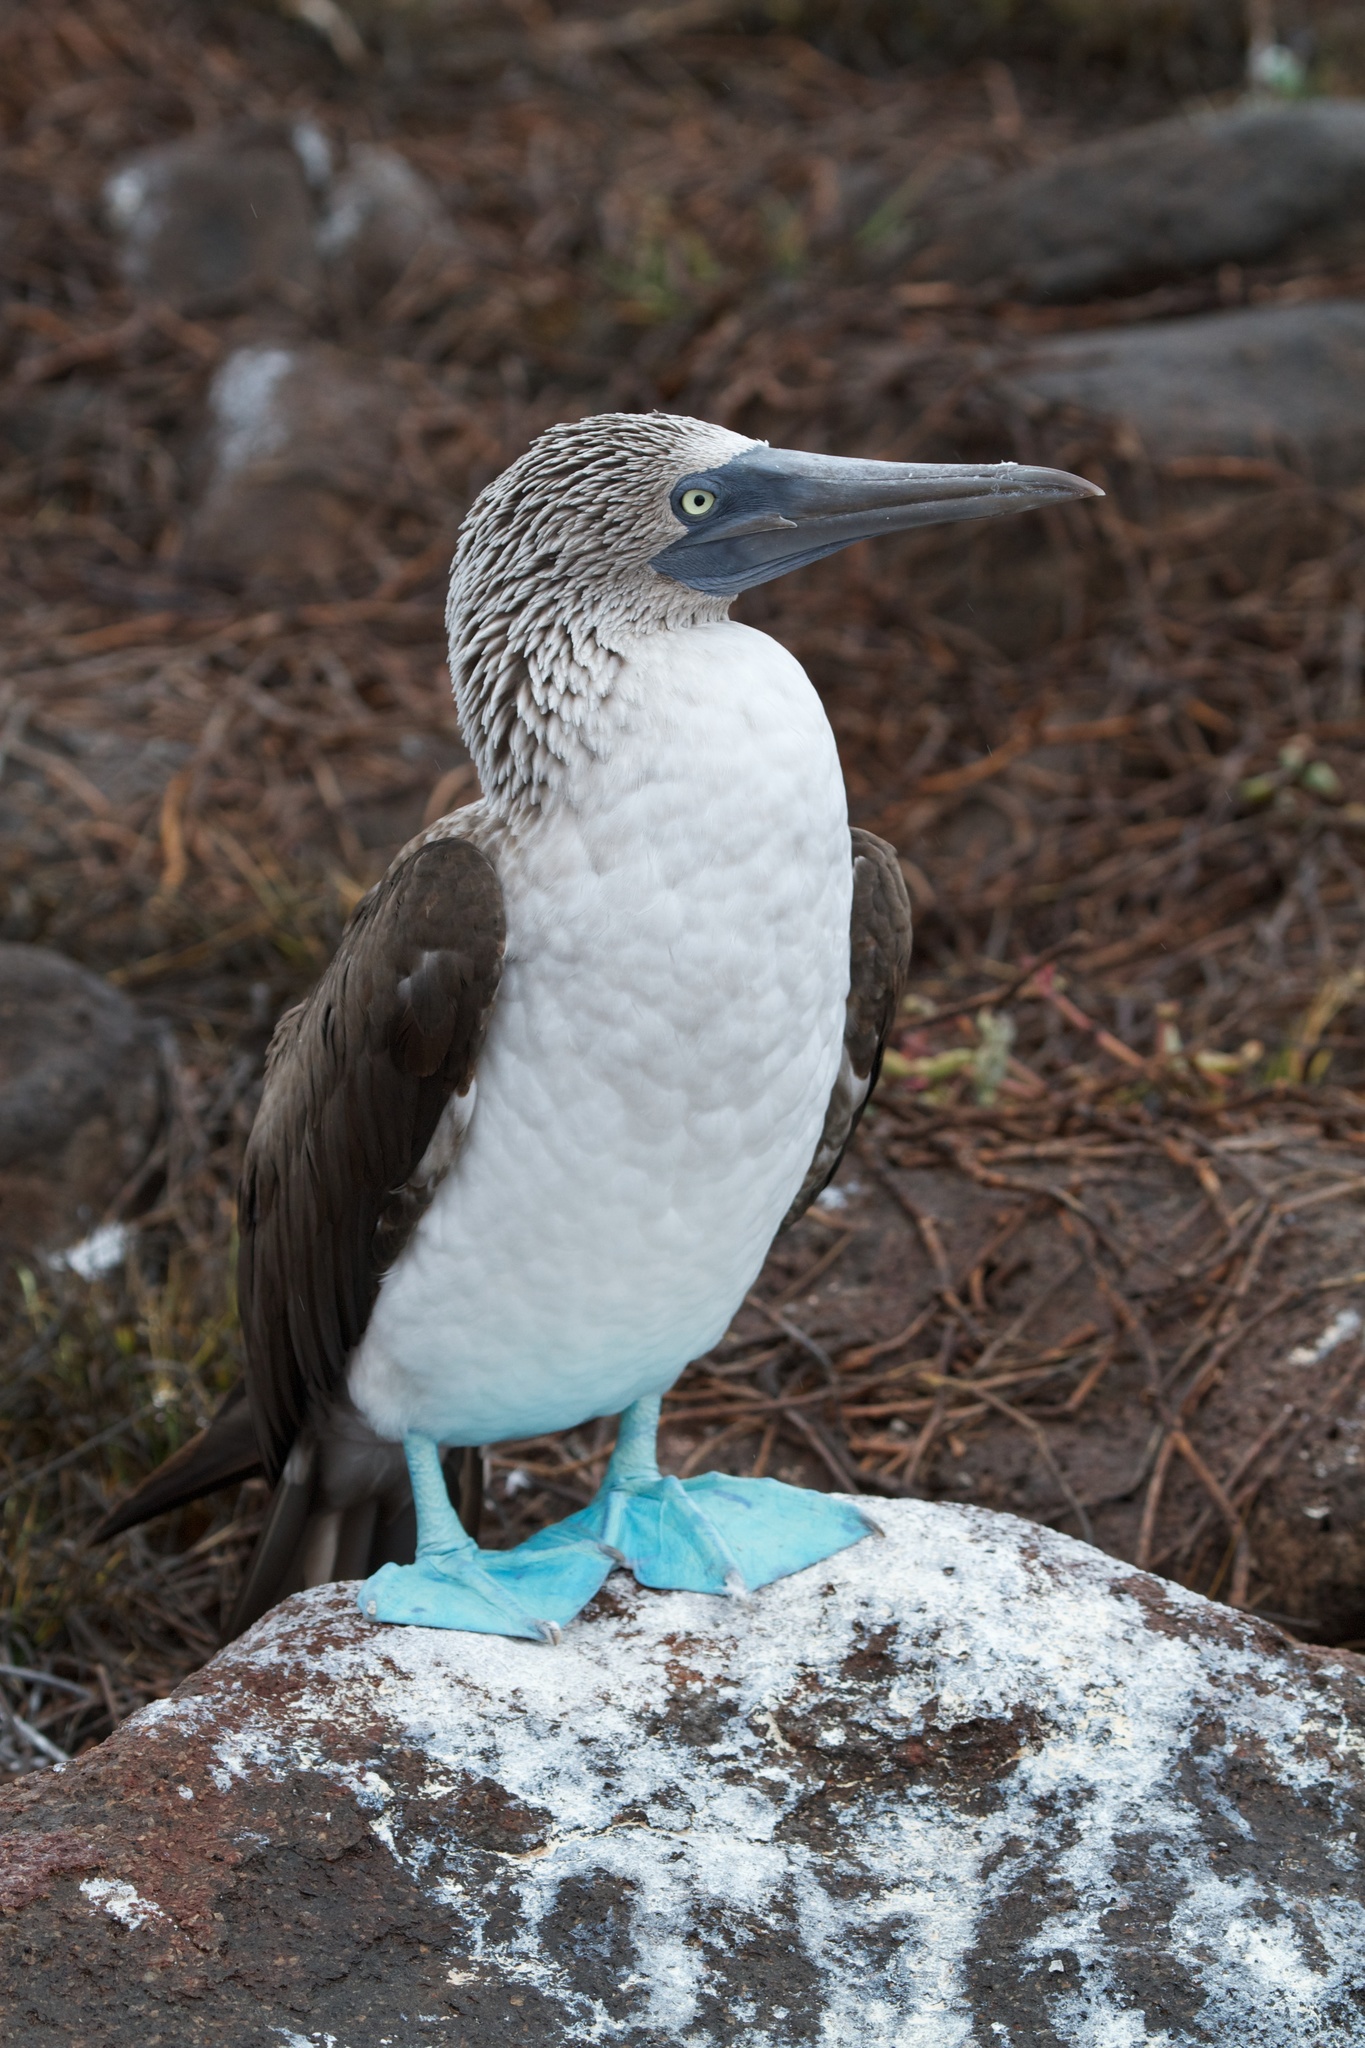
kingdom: Animalia
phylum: Chordata
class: Aves
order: Suliformes
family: Sulidae
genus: Sula
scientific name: Sula nebouxii
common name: Blue-footed booby
